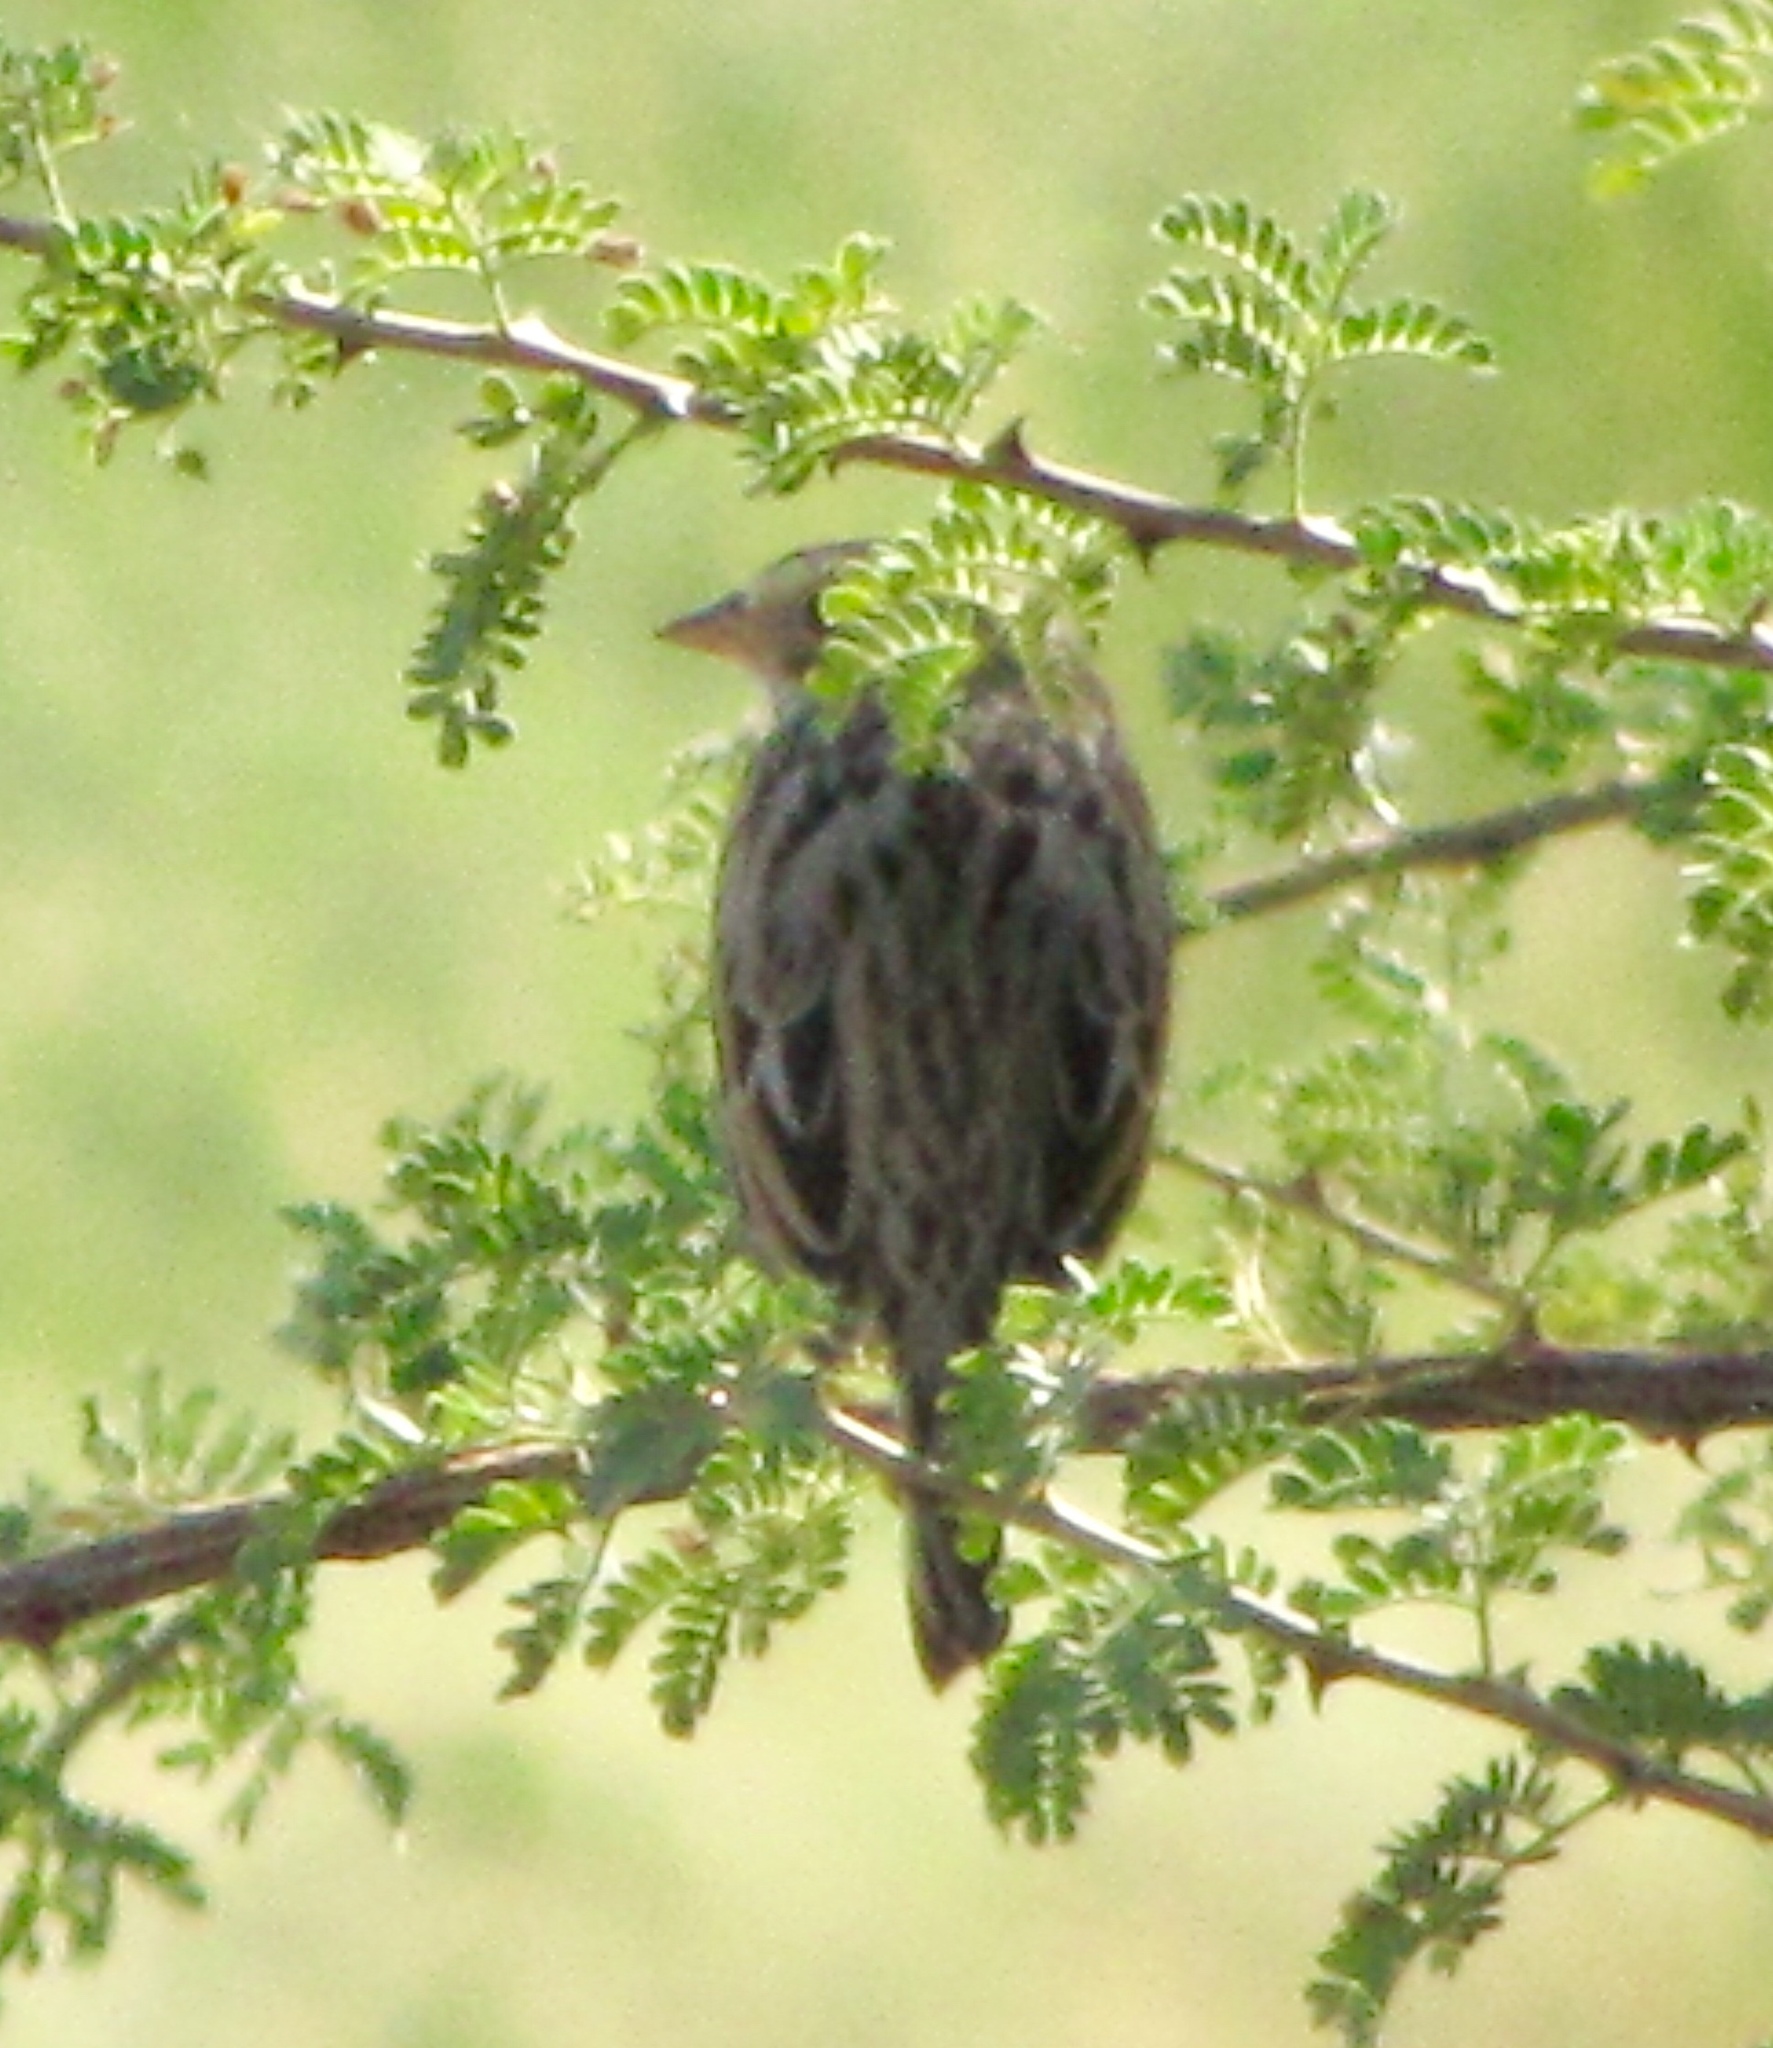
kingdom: Animalia
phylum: Chordata
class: Aves
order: Passeriformes
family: Passerellidae
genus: Passerculus
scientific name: Passerculus sandwichensis
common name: Savannah sparrow
